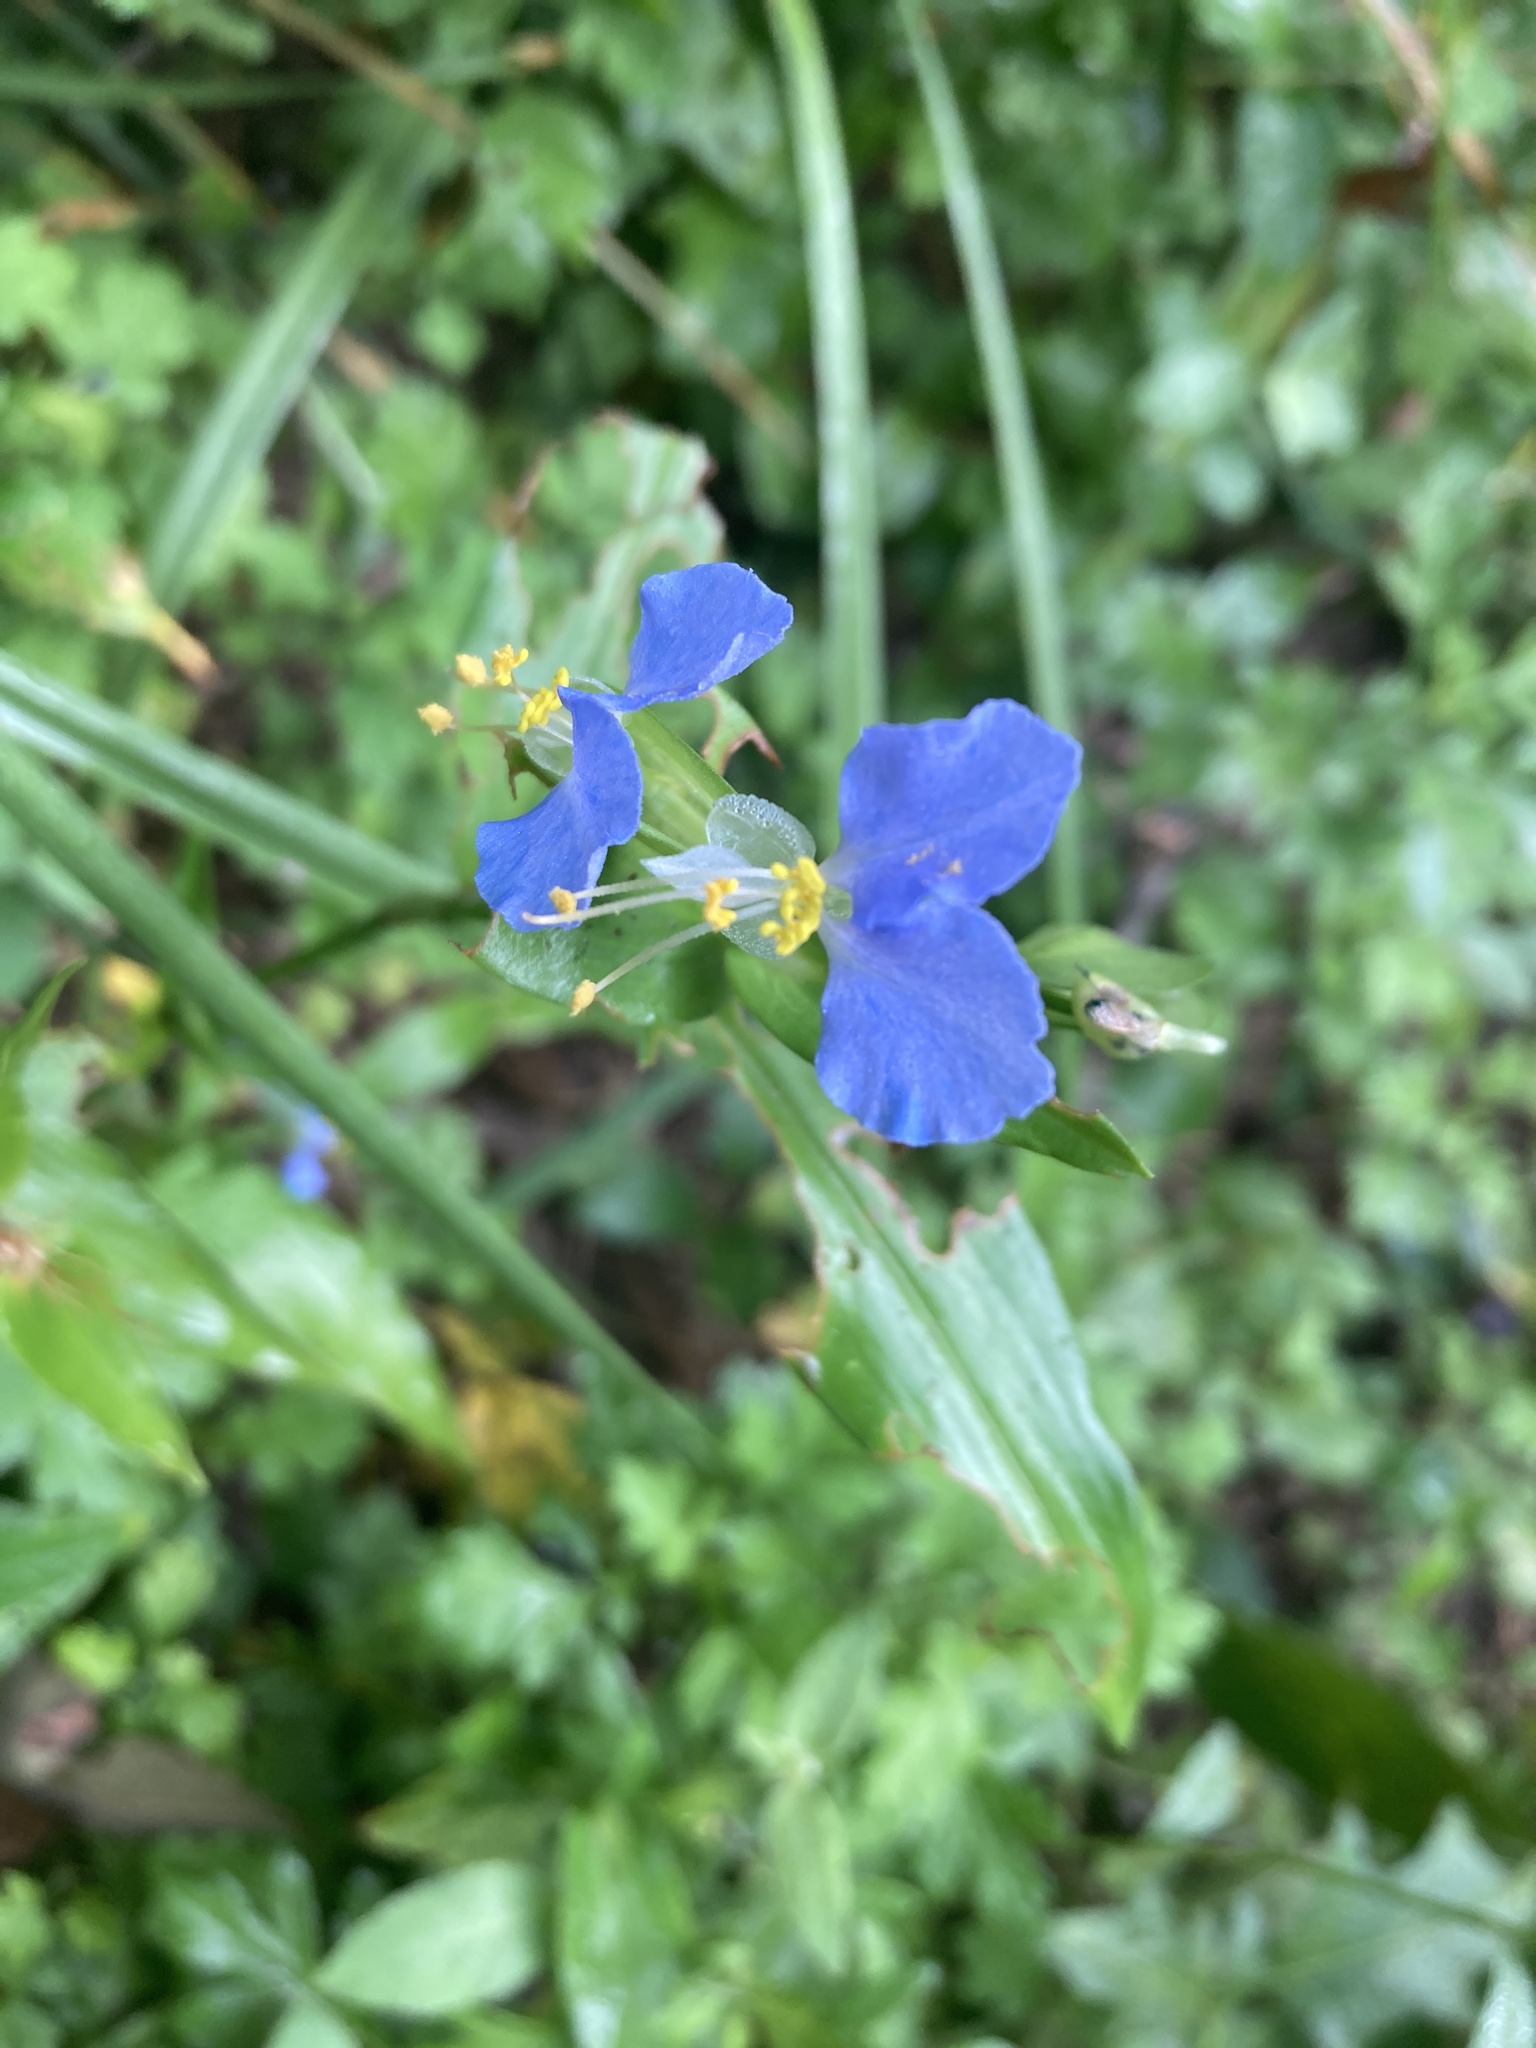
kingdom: Plantae
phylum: Tracheophyta
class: Liliopsida
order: Commelinales
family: Commelinaceae
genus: Commelina
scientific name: Commelina communis
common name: Asiatic dayflower
